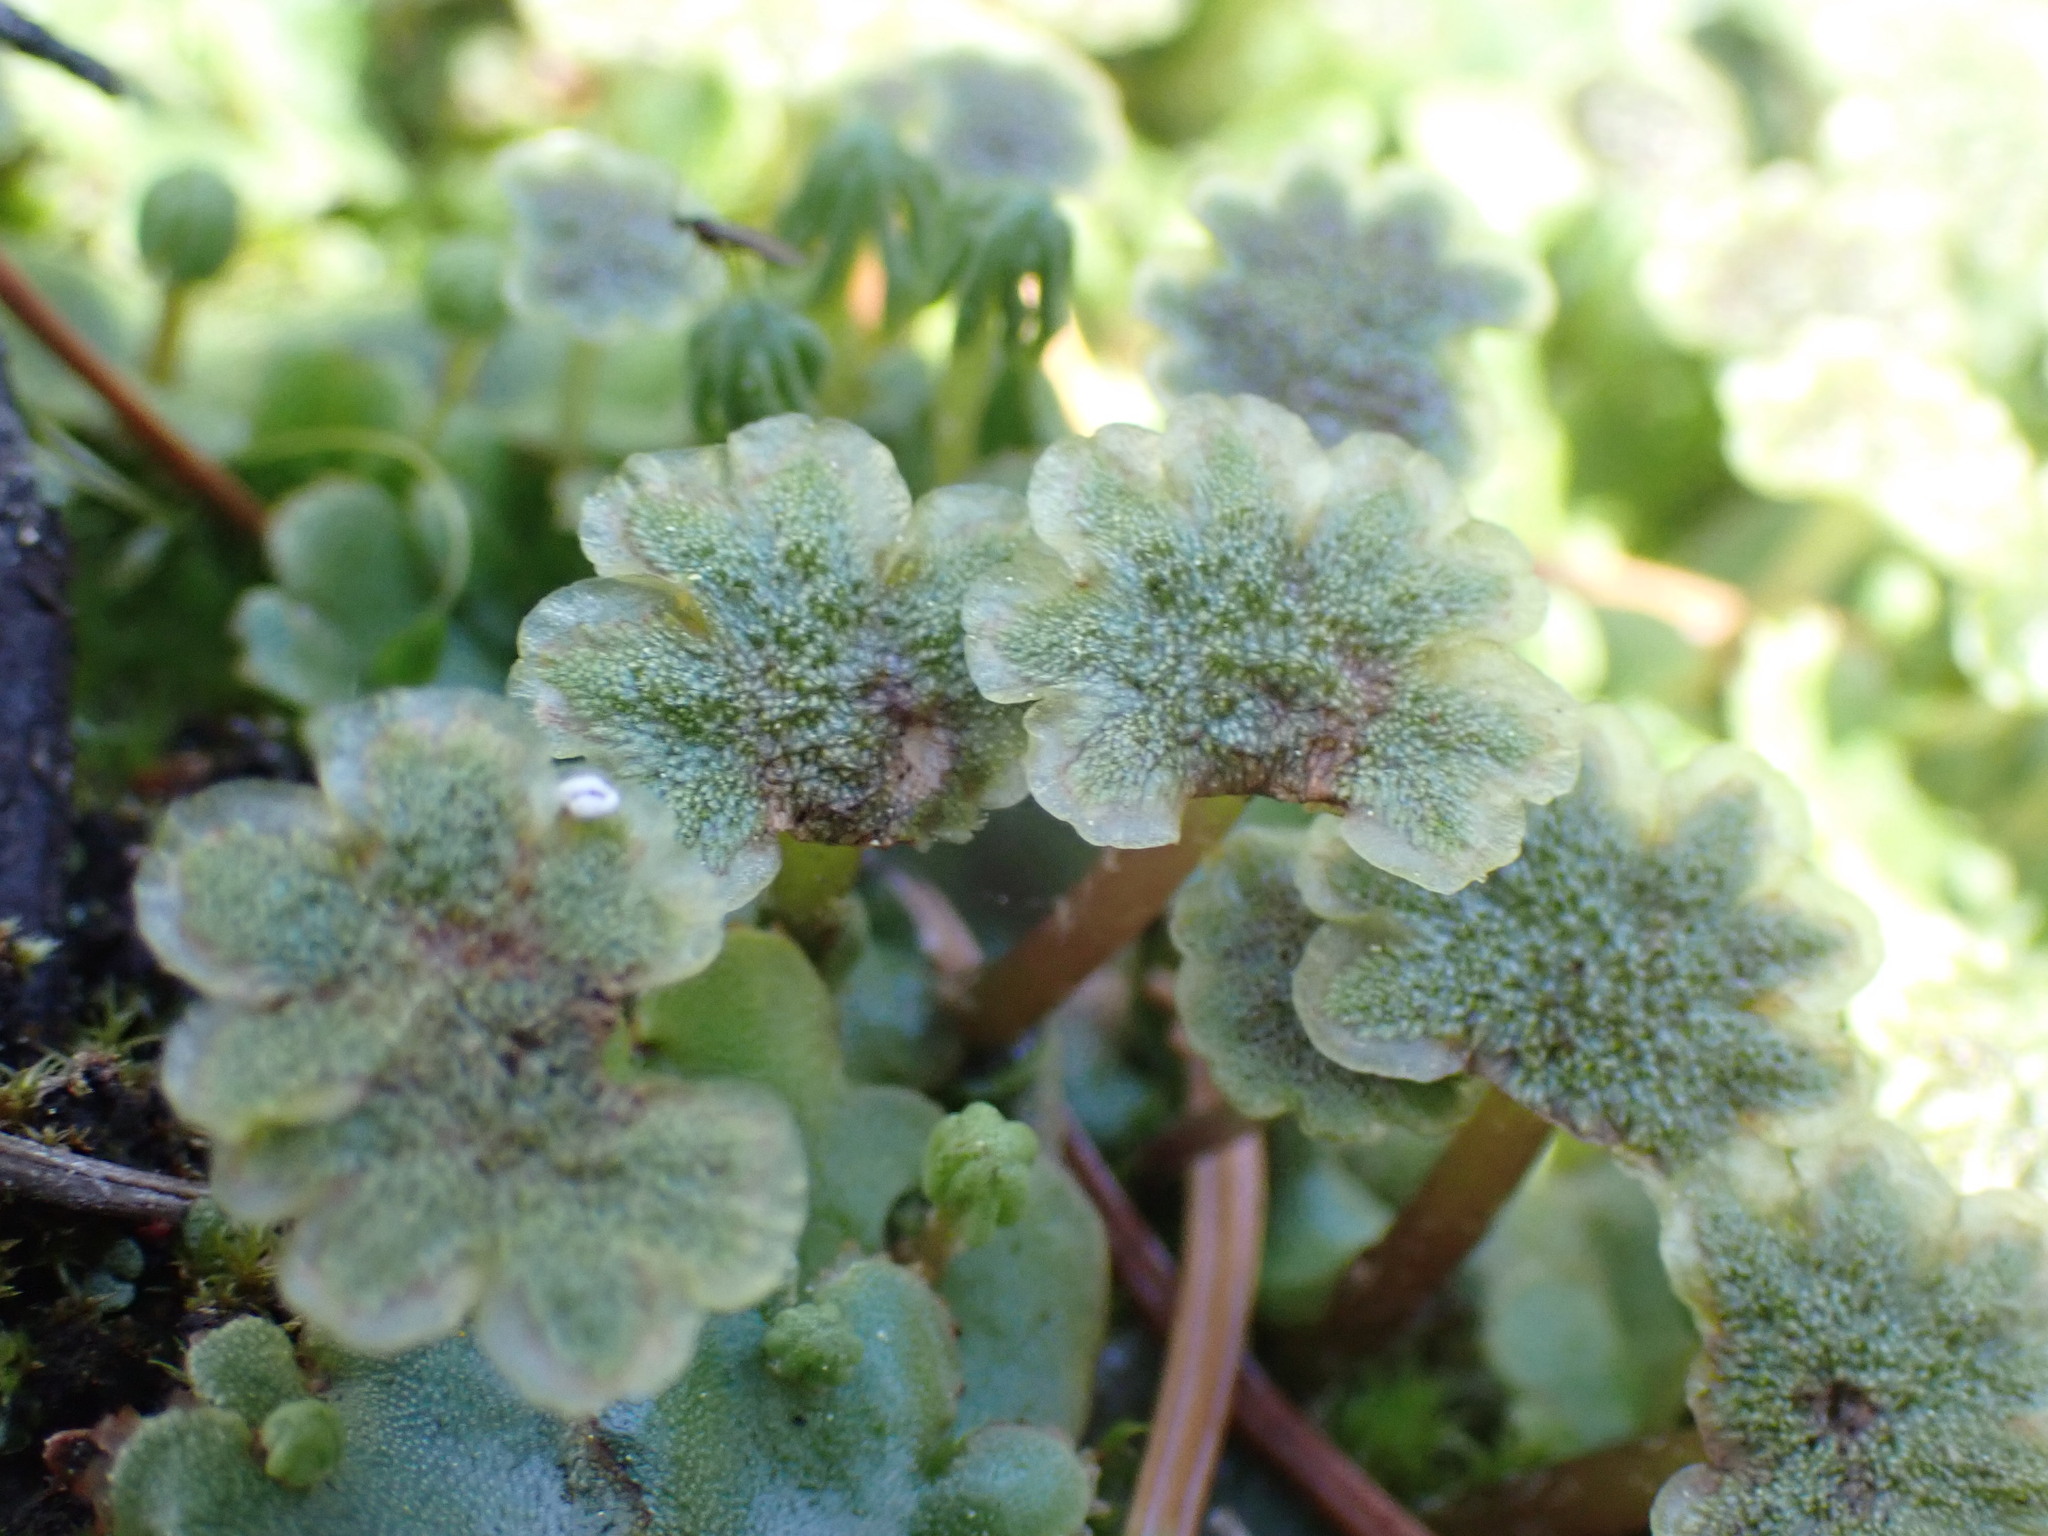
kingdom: Plantae
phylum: Marchantiophyta
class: Marchantiopsida
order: Marchantiales
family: Marchantiaceae
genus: Marchantia
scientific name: Marchantia polymorpha
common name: Common liverwort
